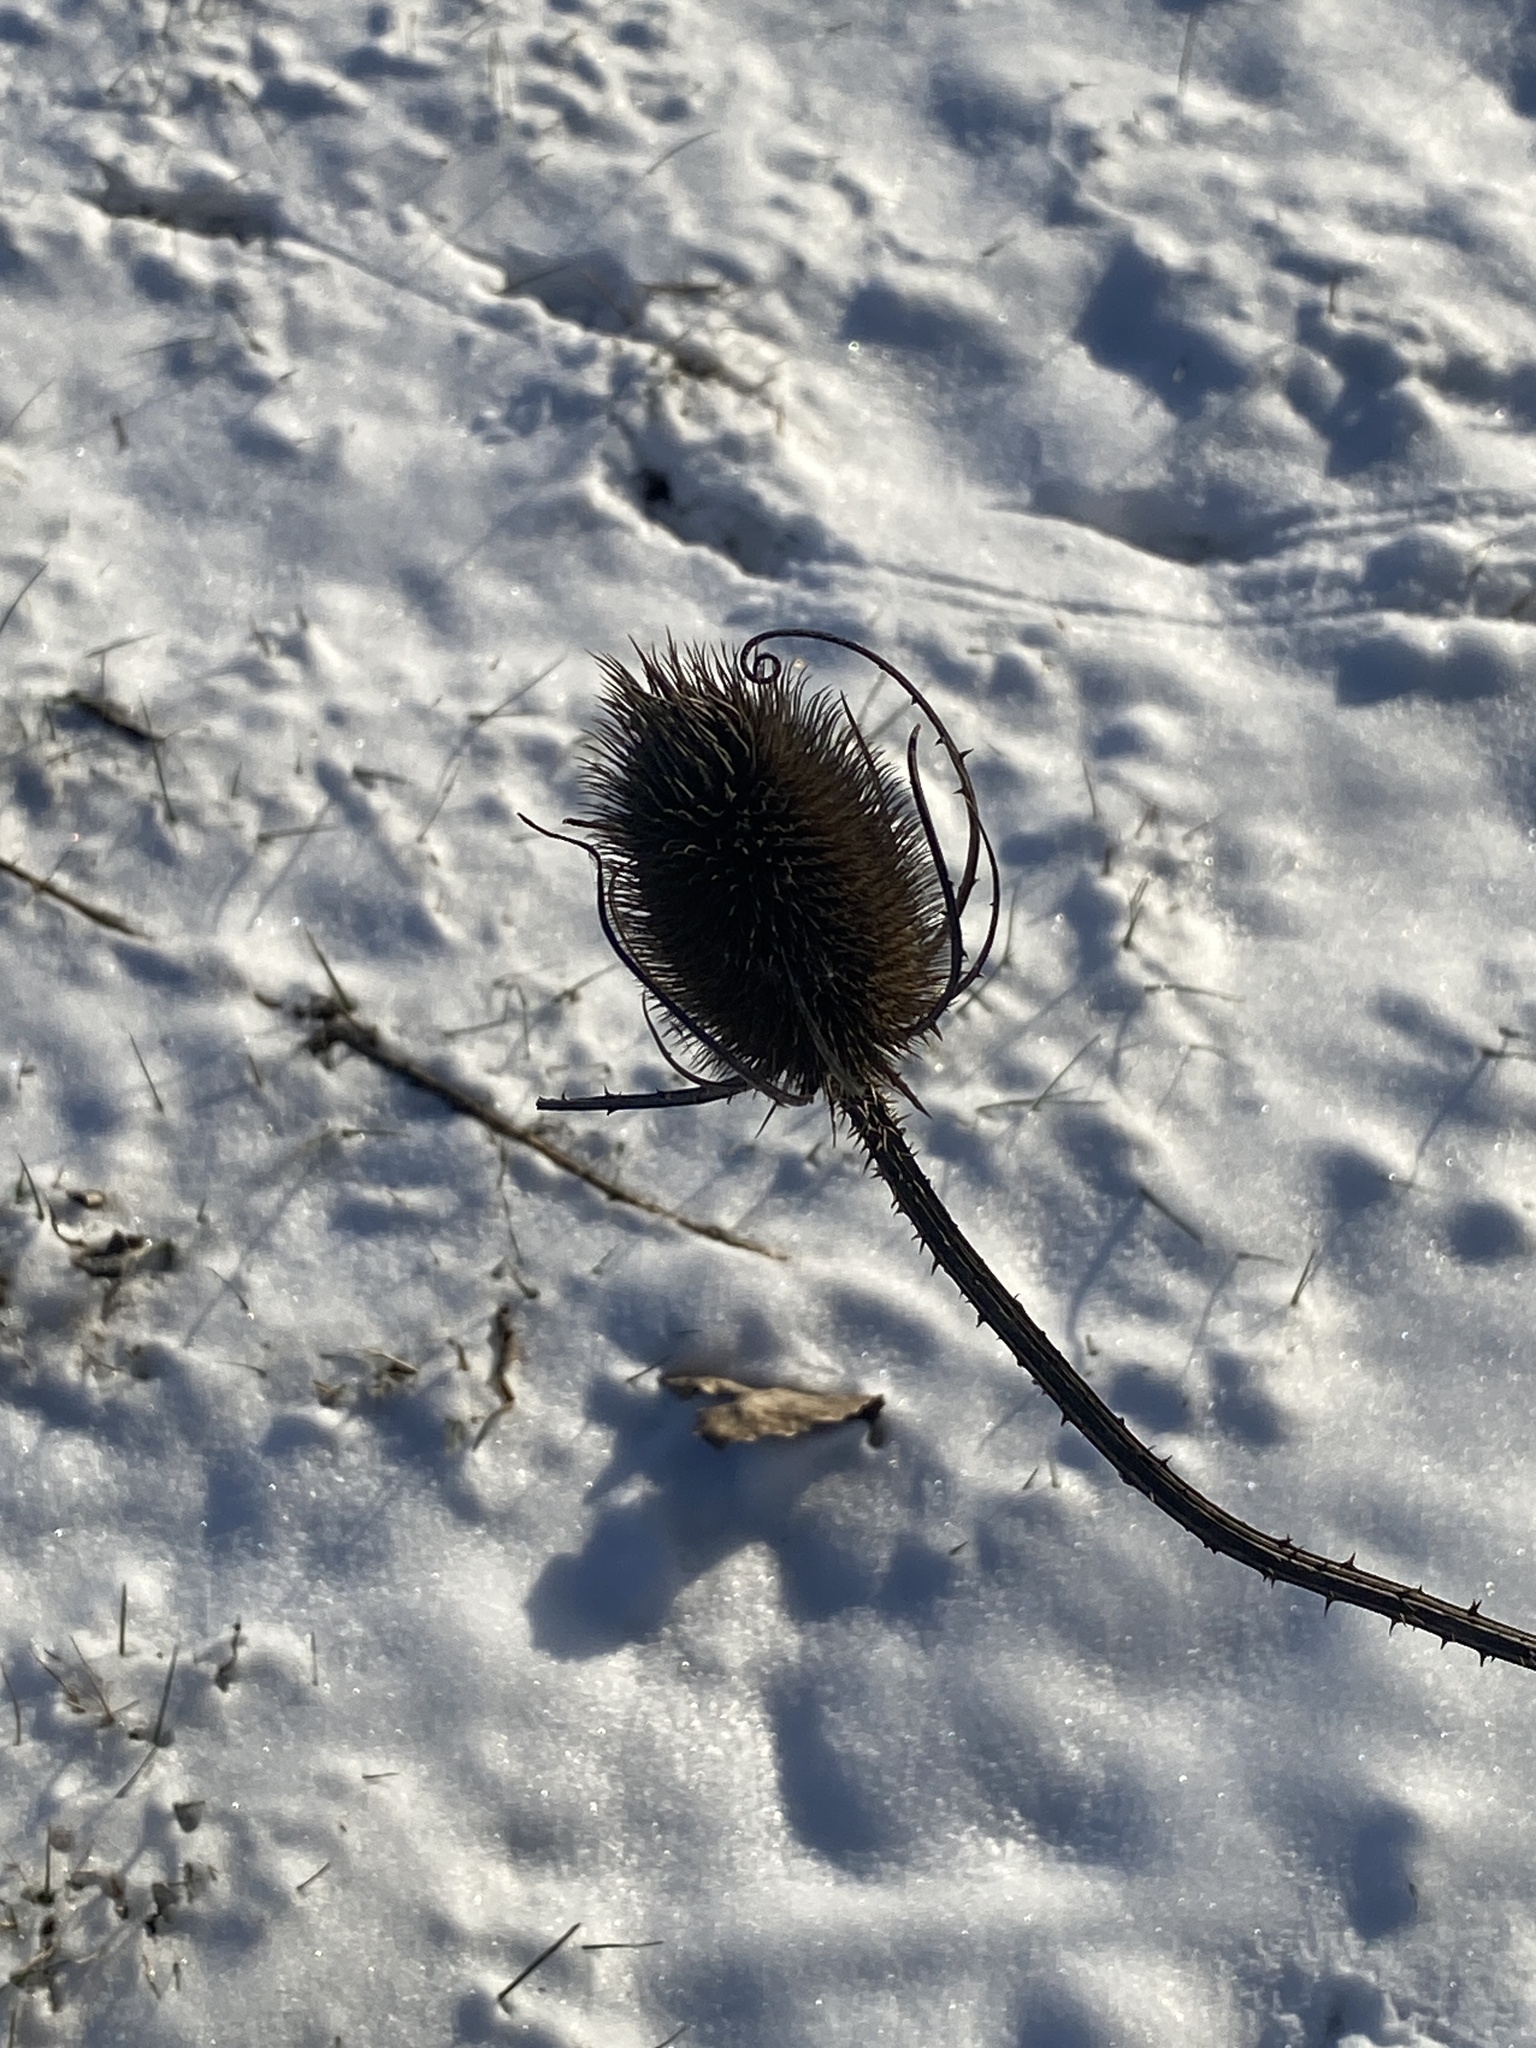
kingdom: Plantae
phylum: Tracheophyta
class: Magnoliopsida
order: Dipsacales
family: Caprifoliaceae
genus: Dipsacus
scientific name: Dipsacus fullonum
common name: Teasel
